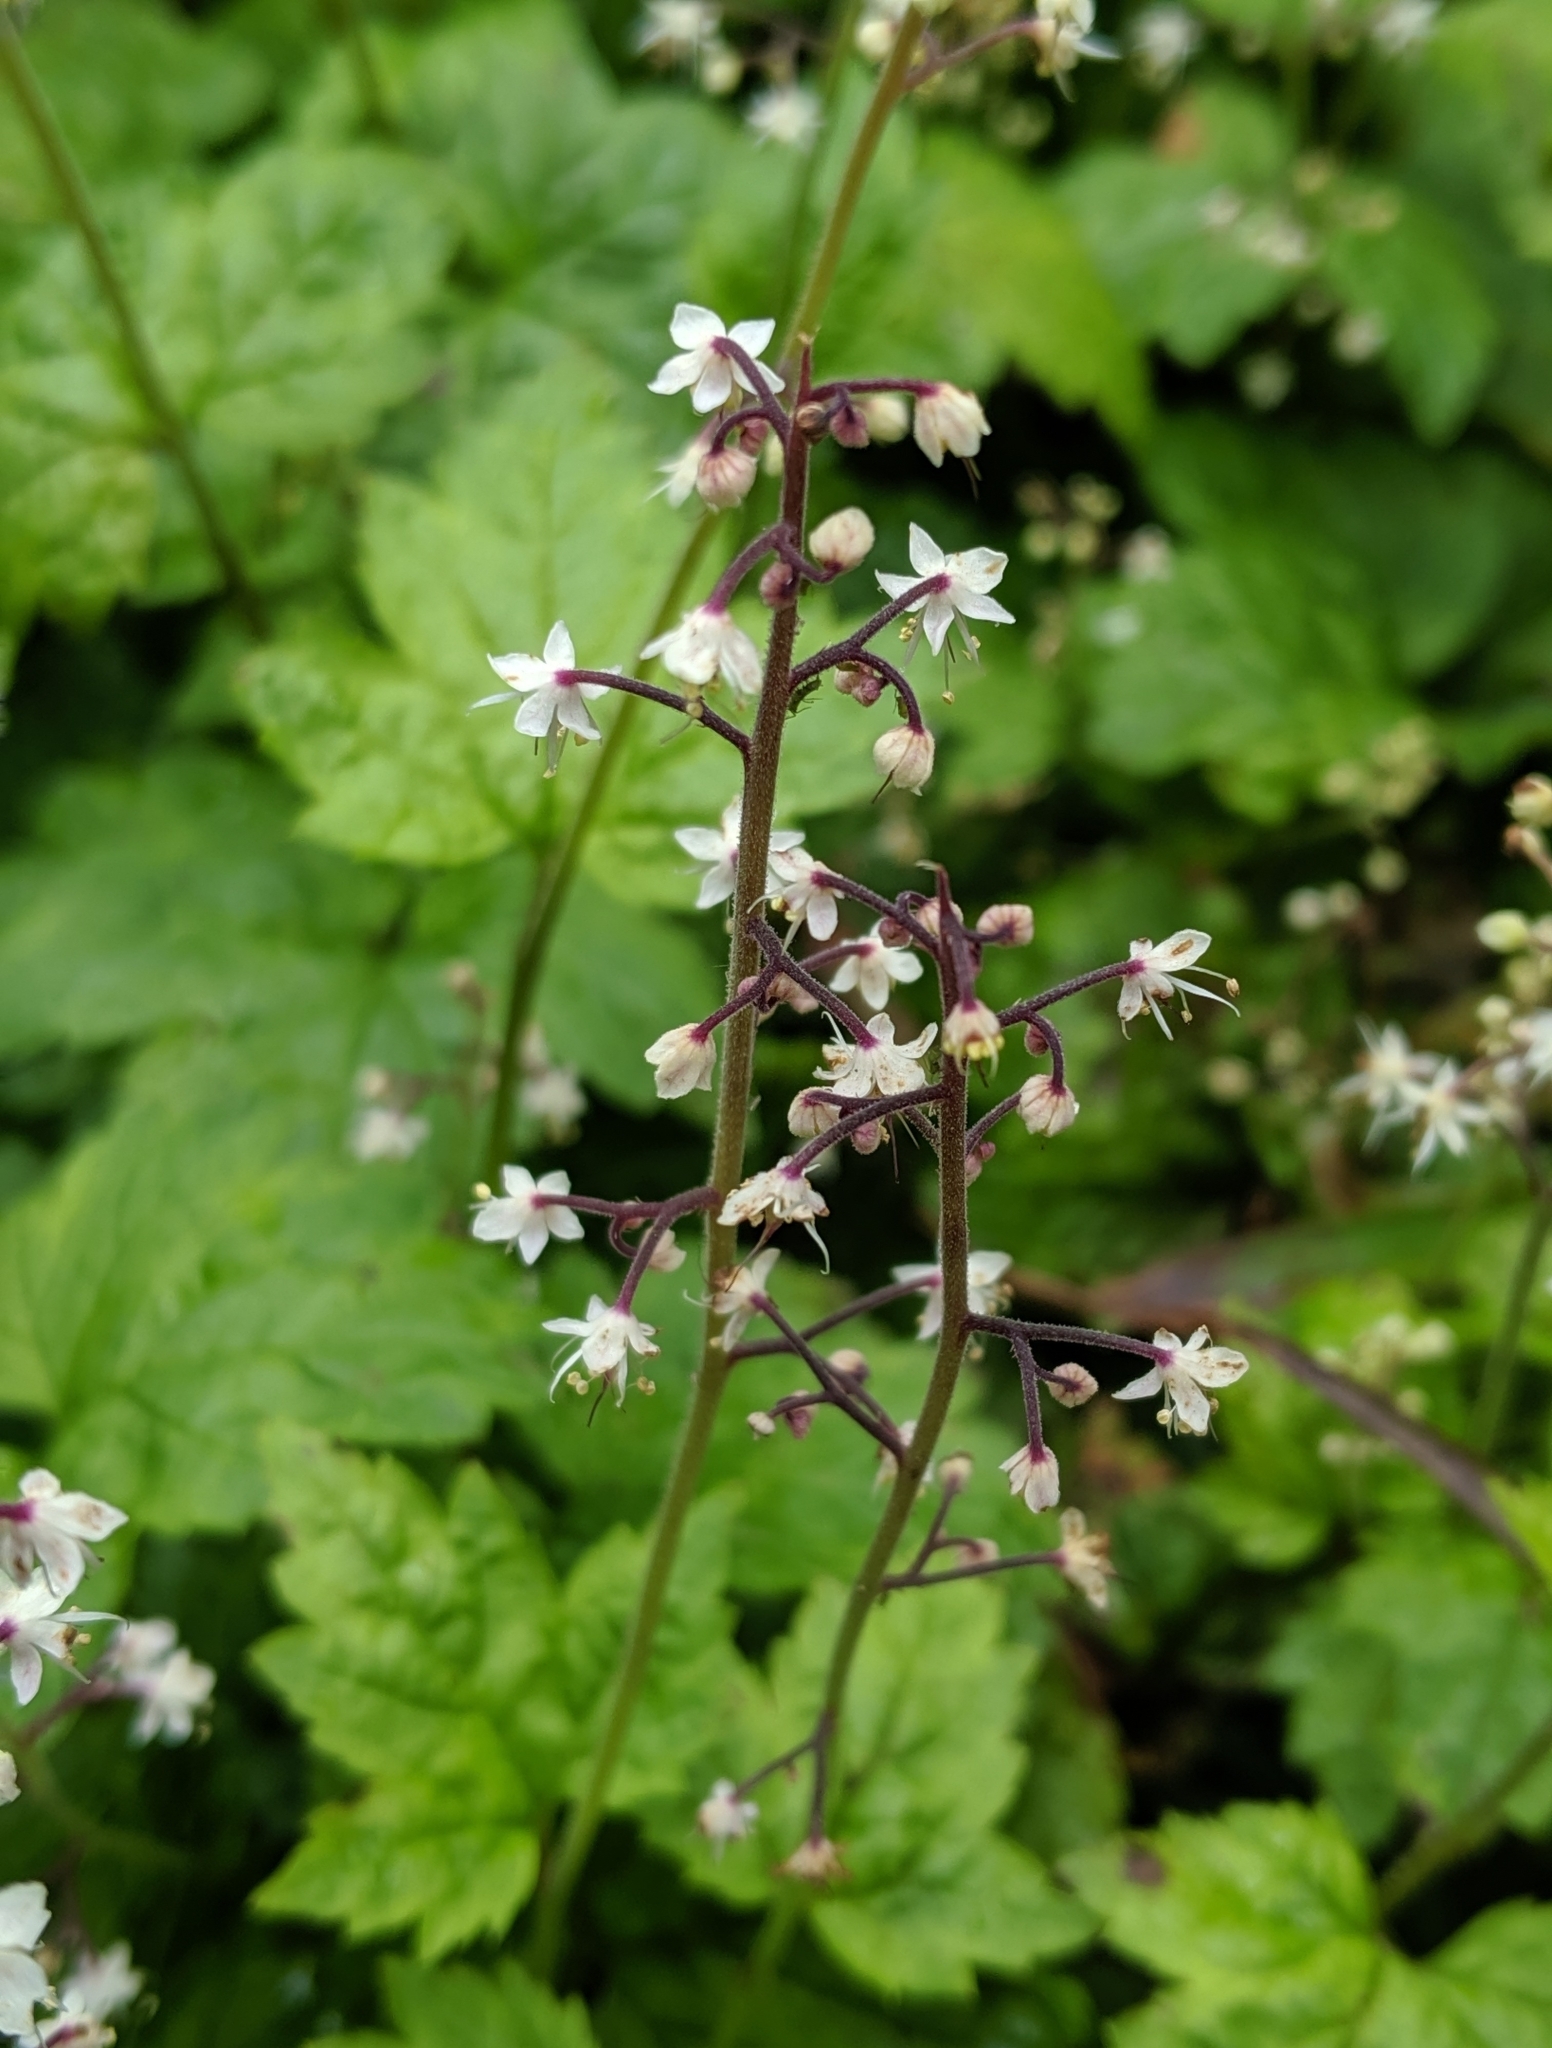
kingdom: Plantae
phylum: Tracheophyta
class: Magnoliopsida
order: Saxifragales
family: Saxifragaceae
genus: Tiarella
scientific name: Tiarella trifoliata
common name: Sugar-scoop
